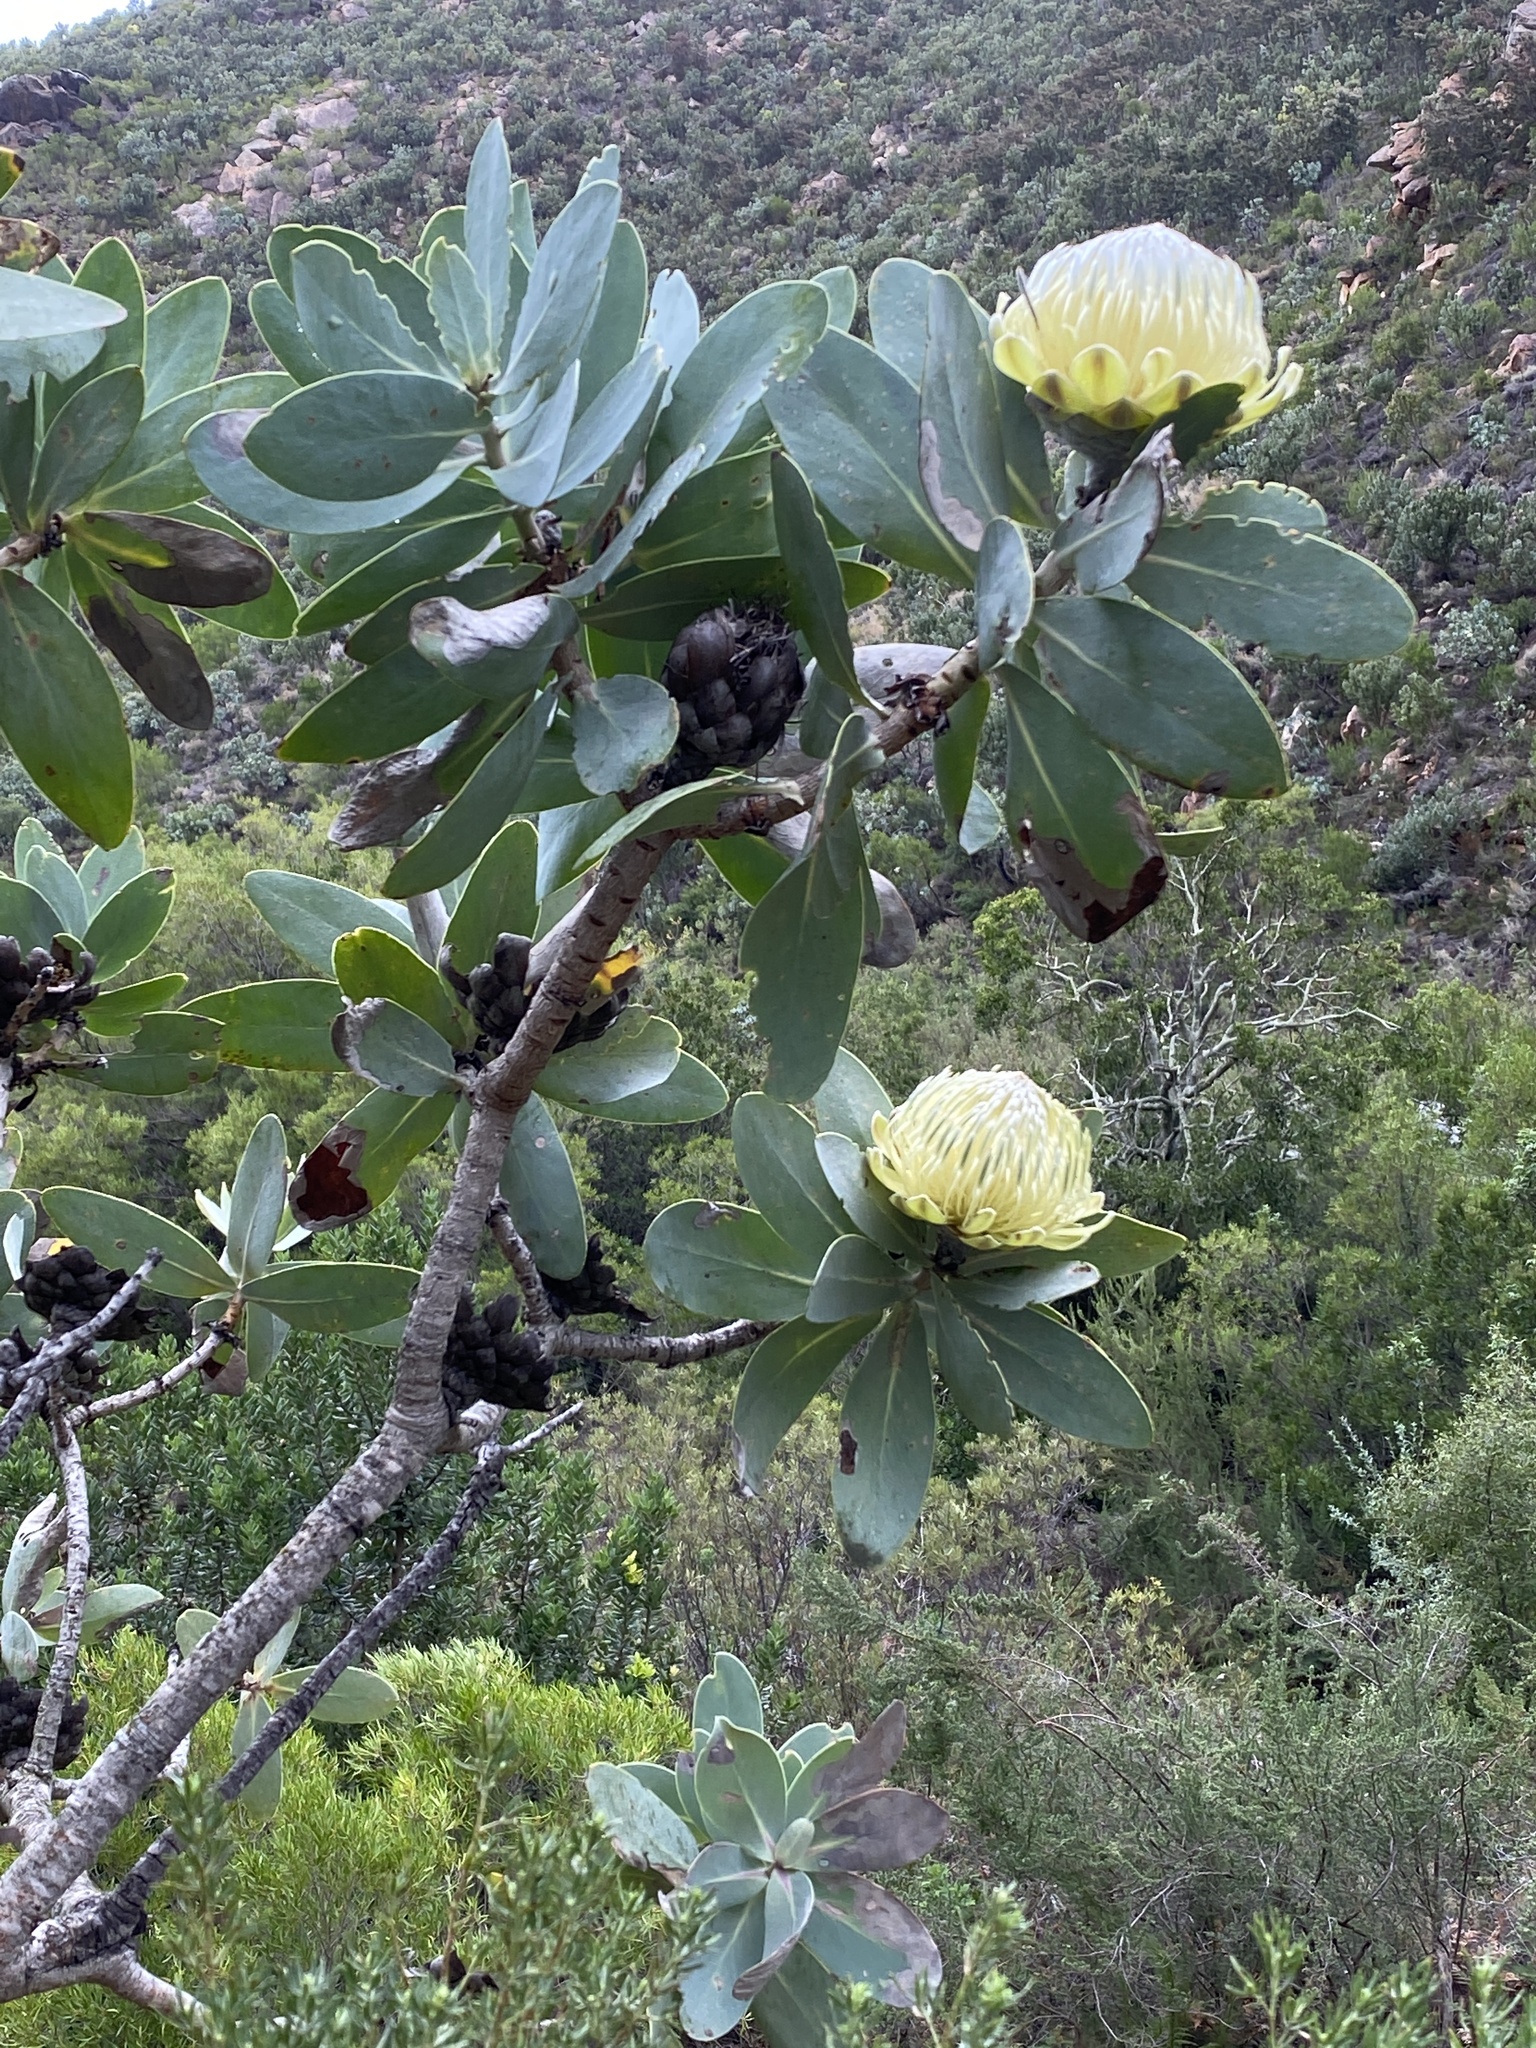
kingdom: Plantae
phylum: Tracheophyta
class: Magnoliopsida
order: Proteales
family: Proteaceae
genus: Protea
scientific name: Protea nitida
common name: Tree protea
